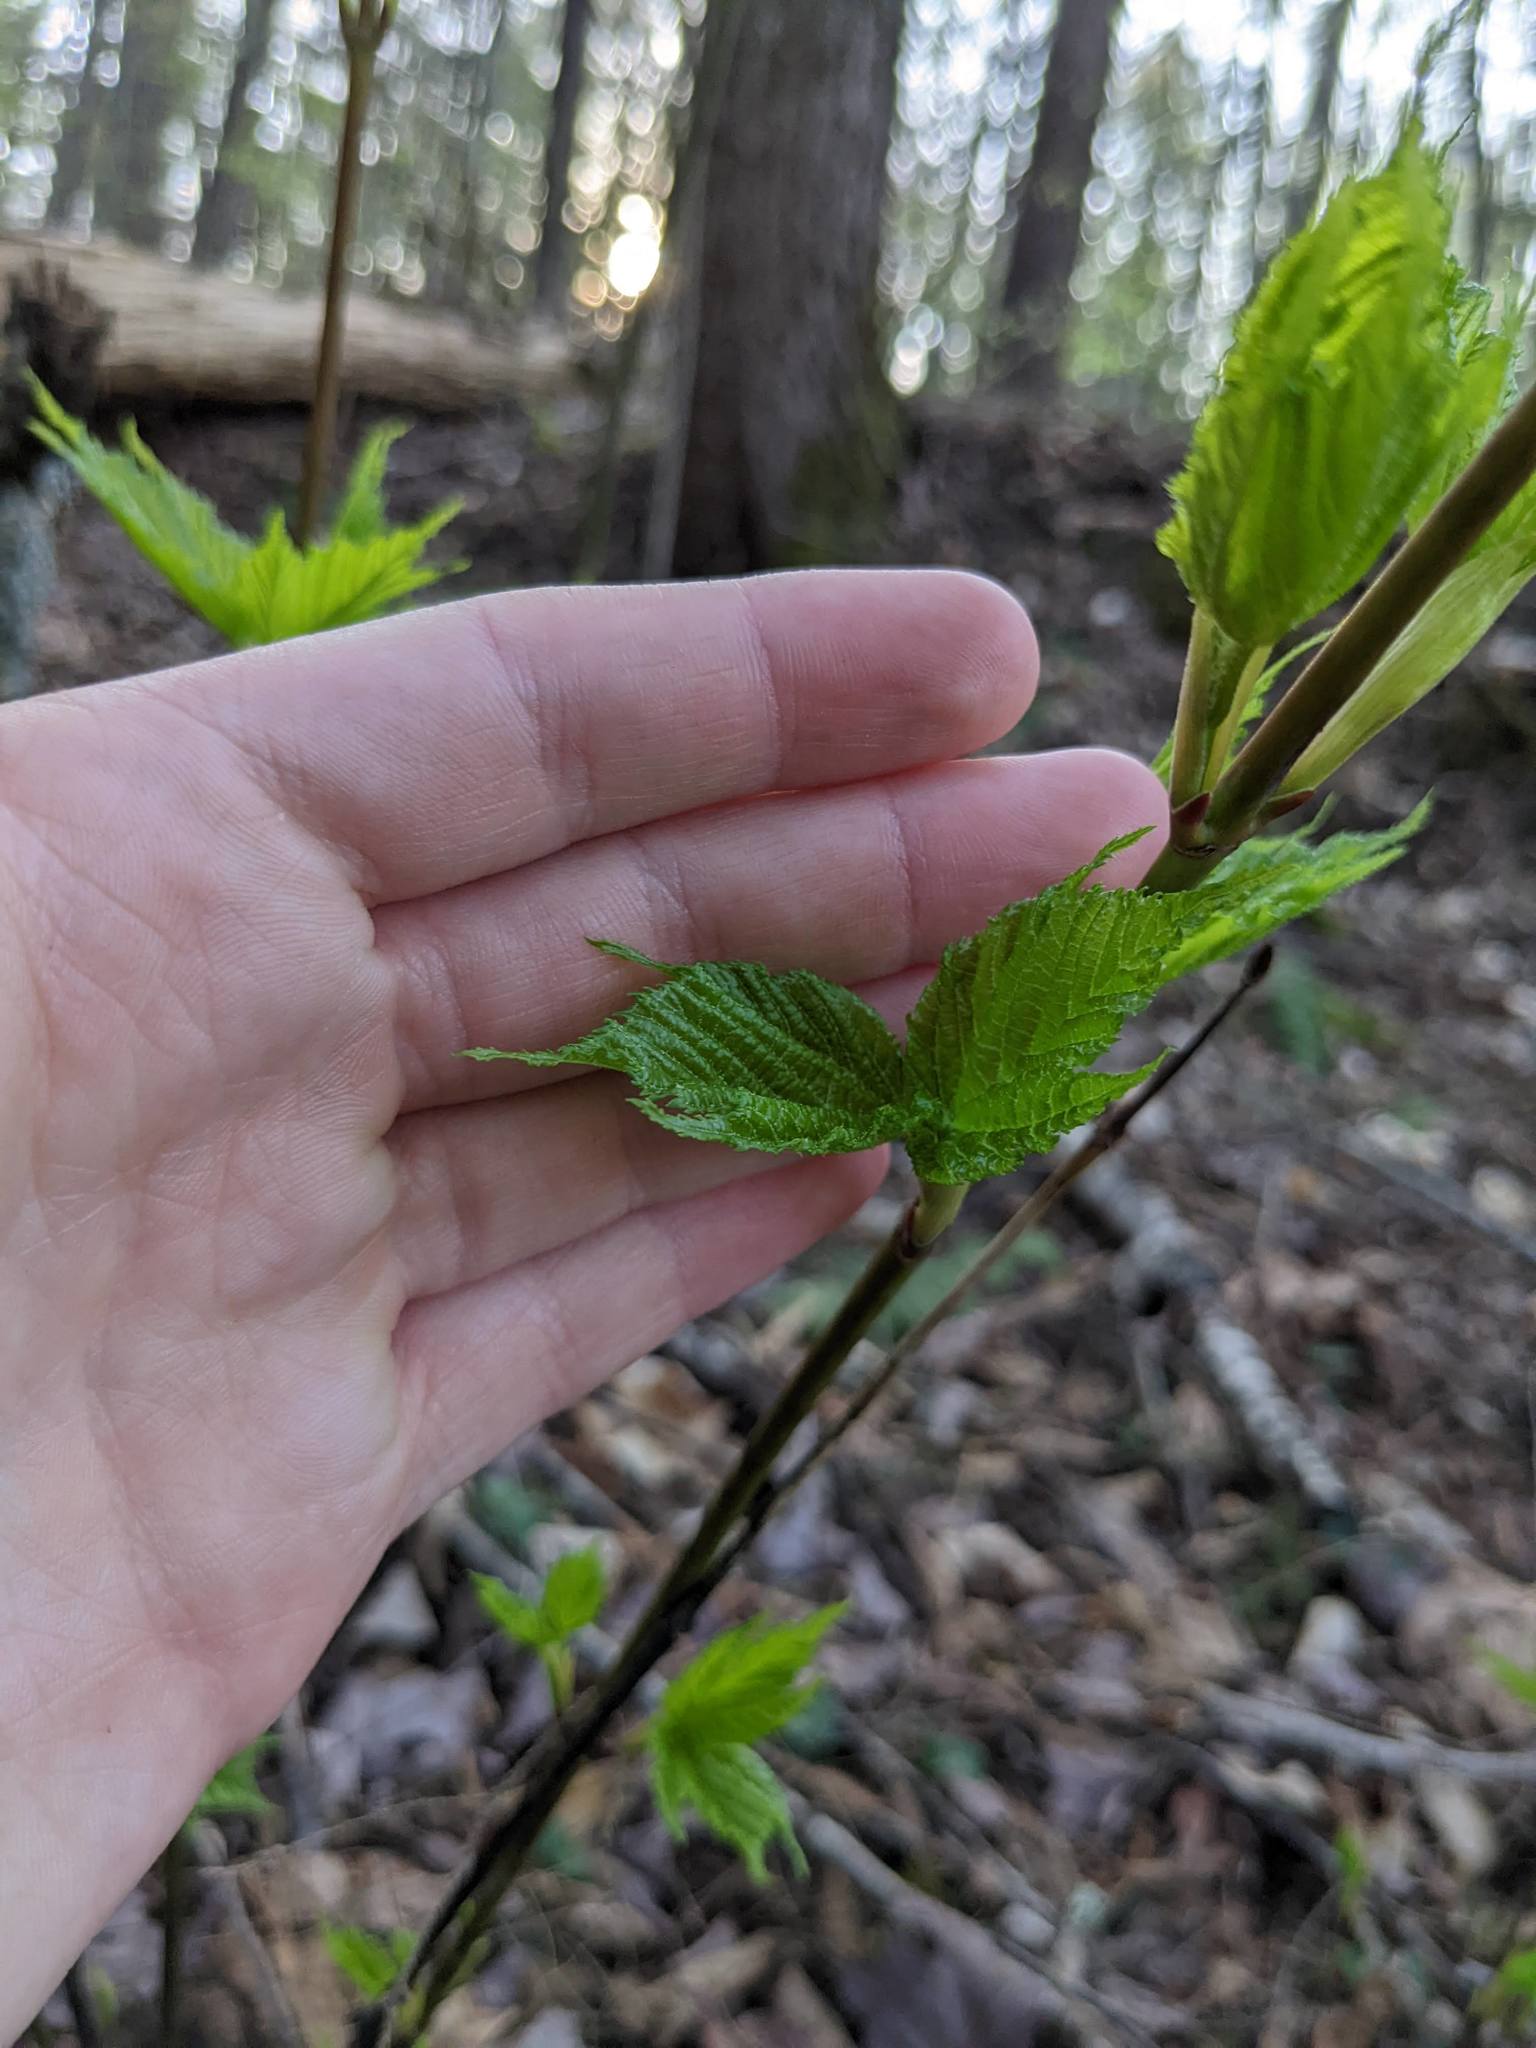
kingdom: Plantae
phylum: Tracheophyta
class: Magnoliopsida
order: Sapindales
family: Sapindaceae
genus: Acer
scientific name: Acer pensylvanicum
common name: Moosewood
